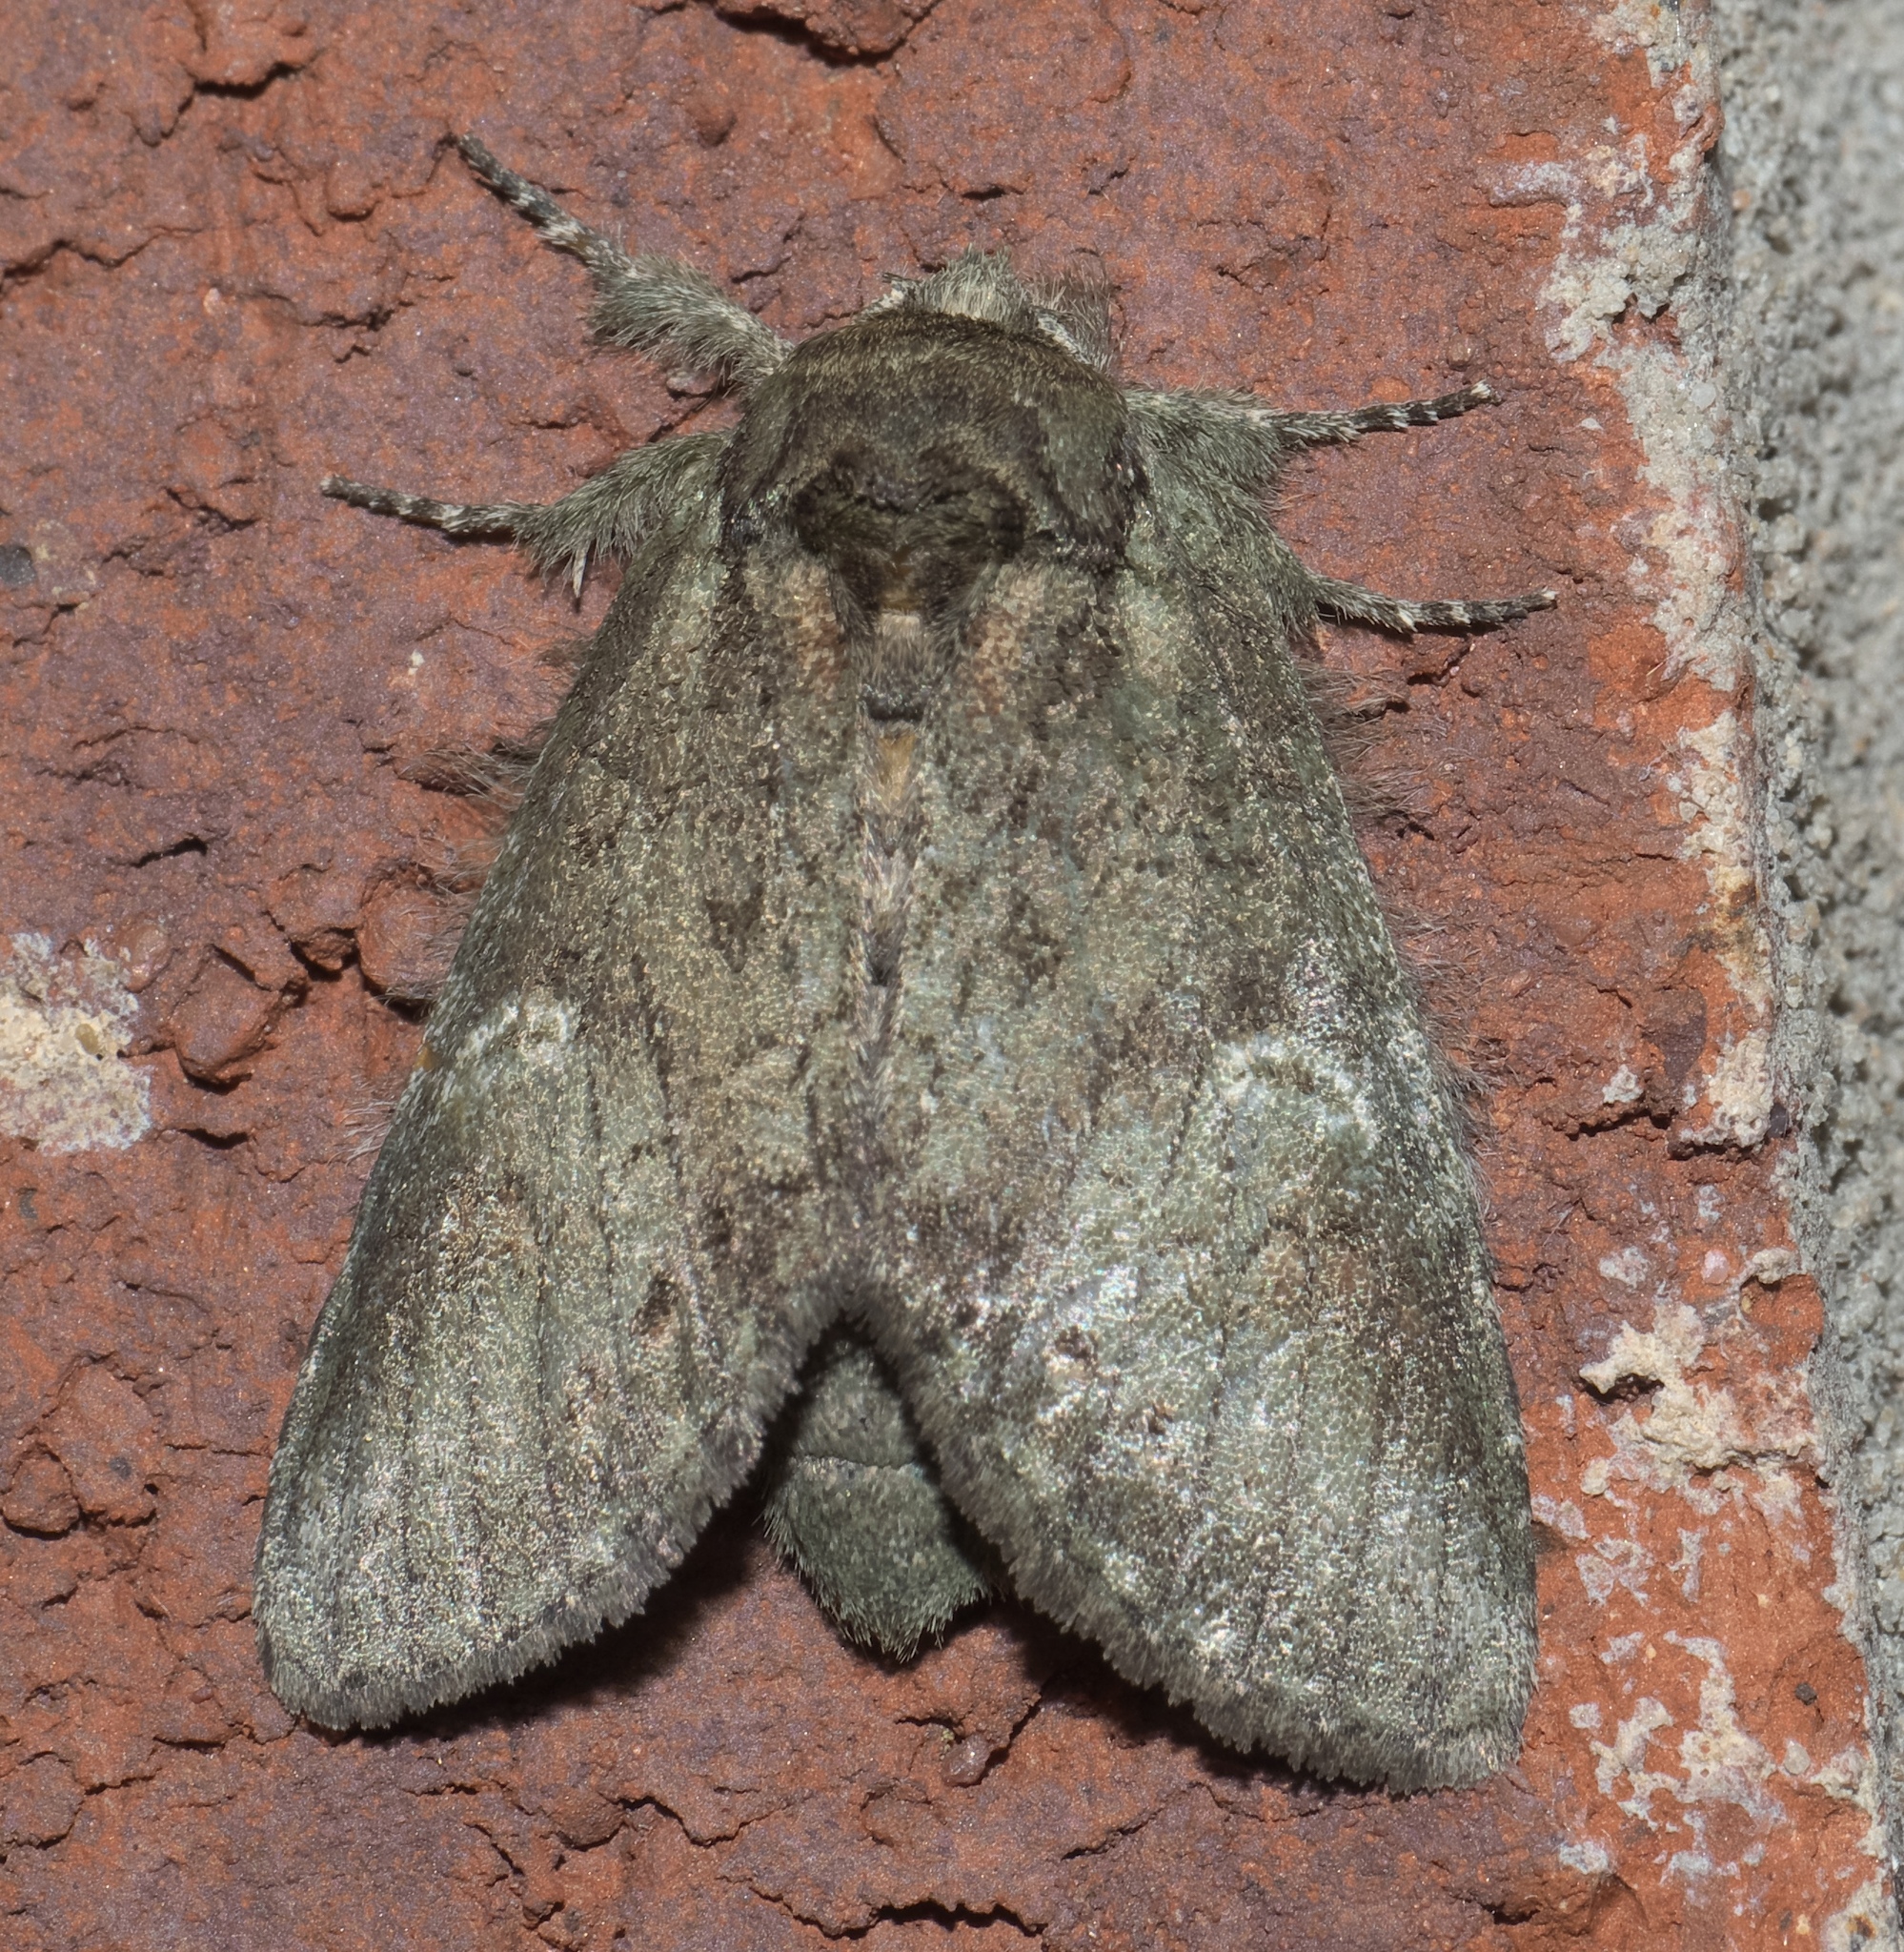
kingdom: Animalia
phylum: Arthropoda
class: Insecta
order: Lepidoptera
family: Notodontidae
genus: Disphragis
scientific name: Disphragis Cecrita guttivitta
